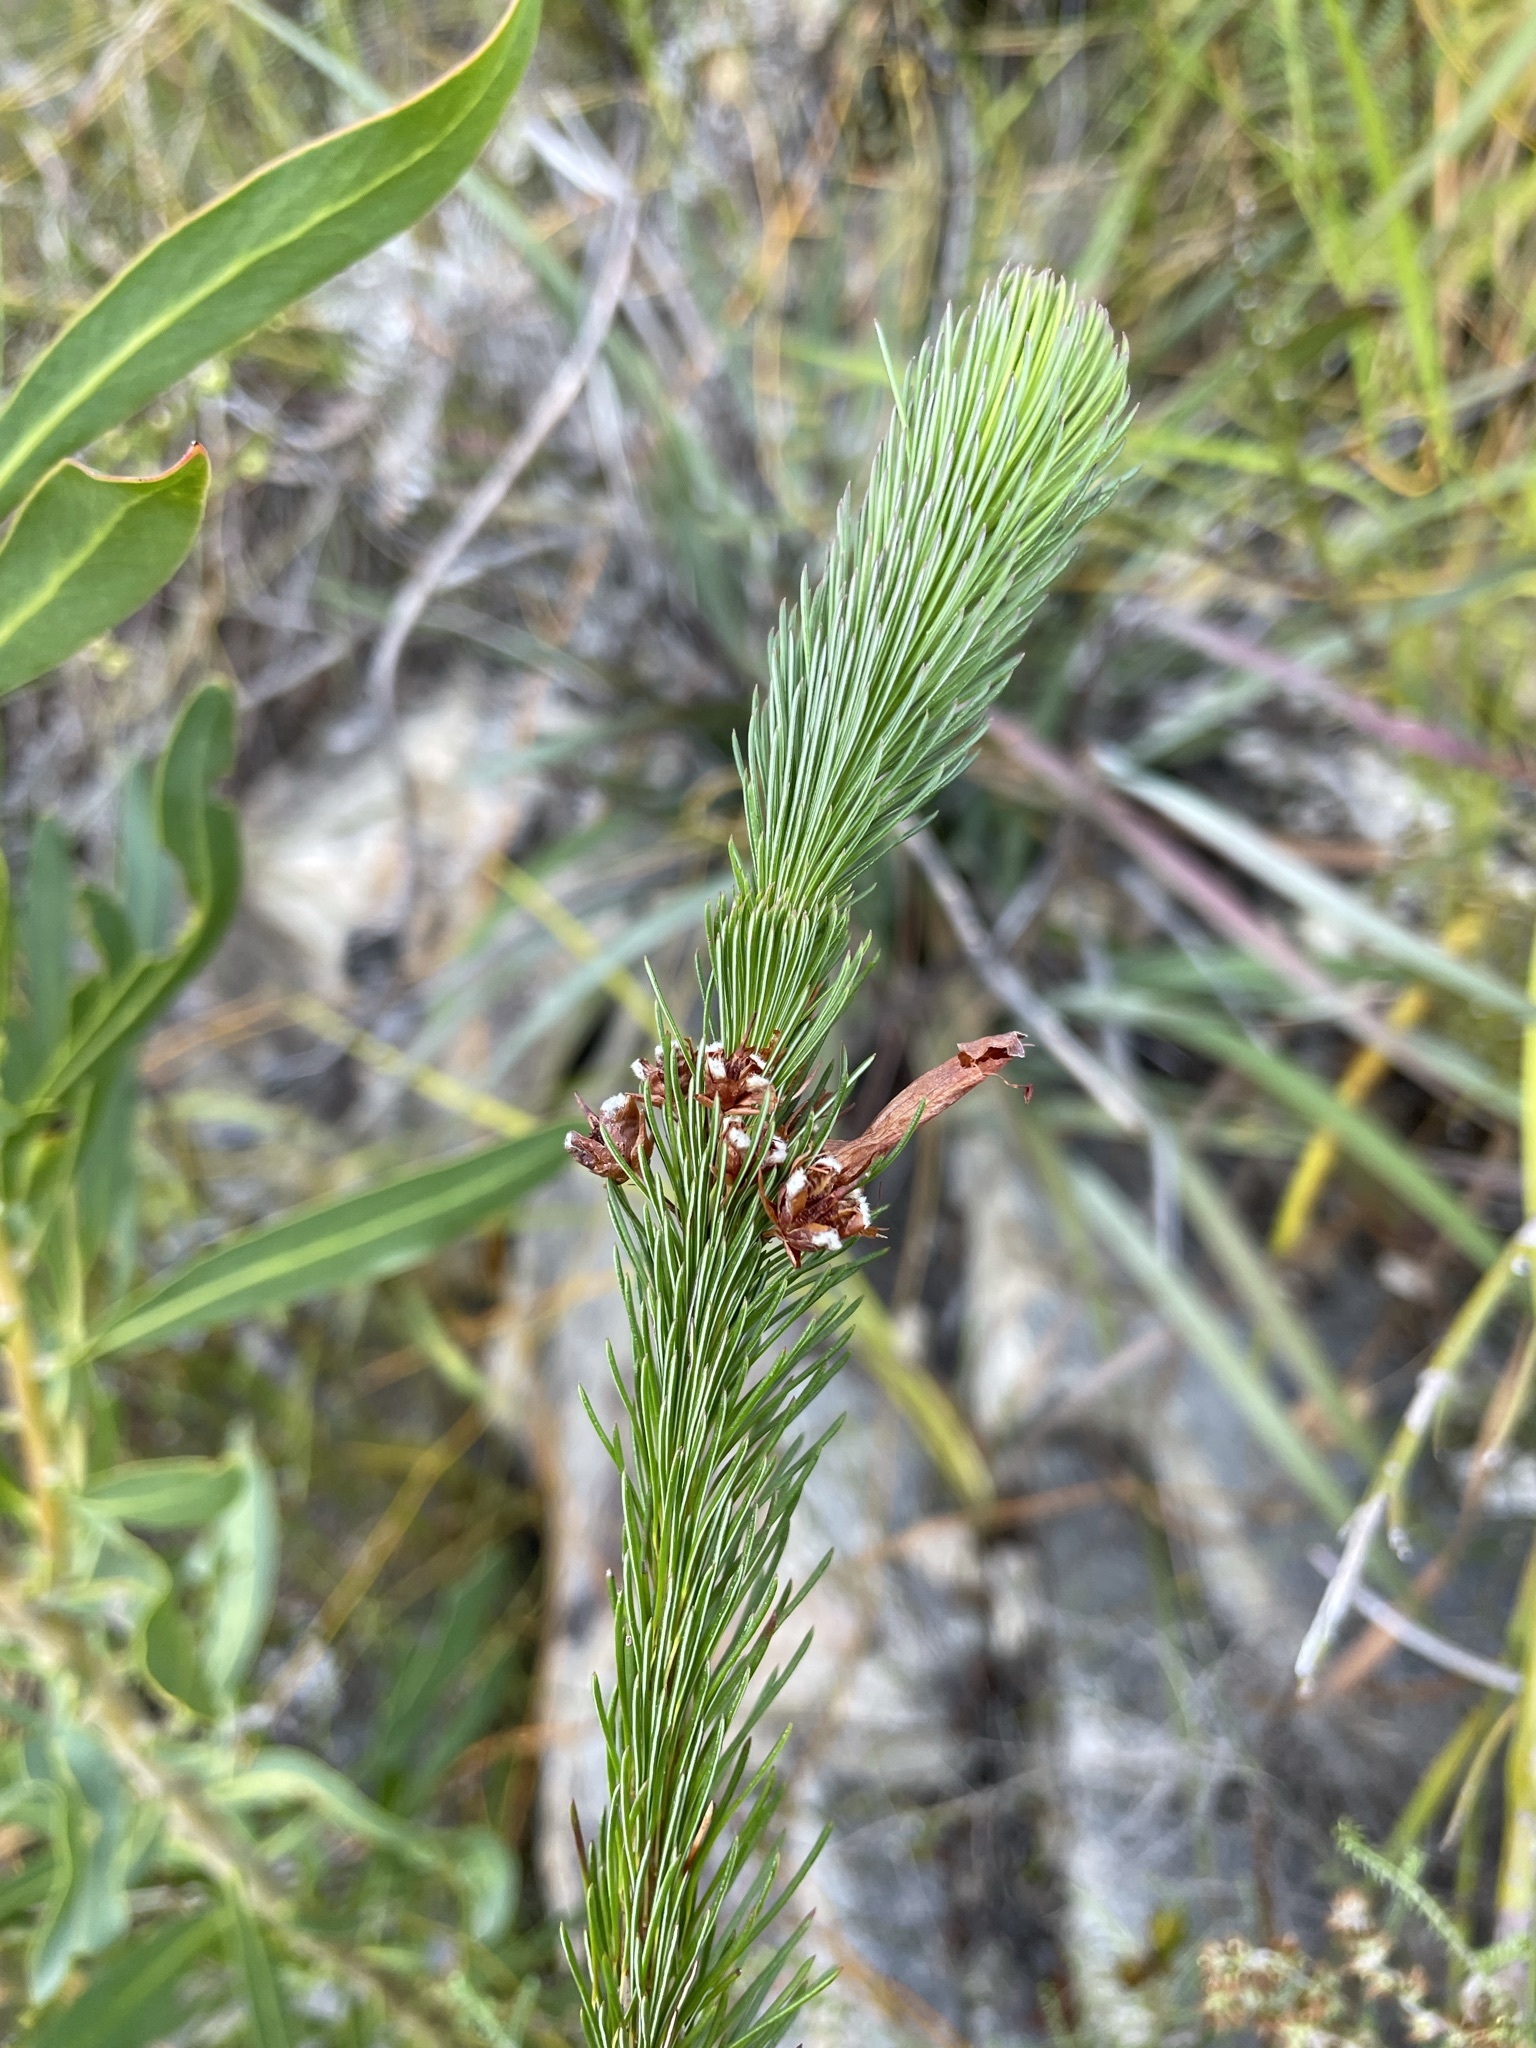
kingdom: Plantae
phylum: Tracheophyta
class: Magnoliopsida
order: Ericales
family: Ericaceae
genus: Erica
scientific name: Erica vestita
